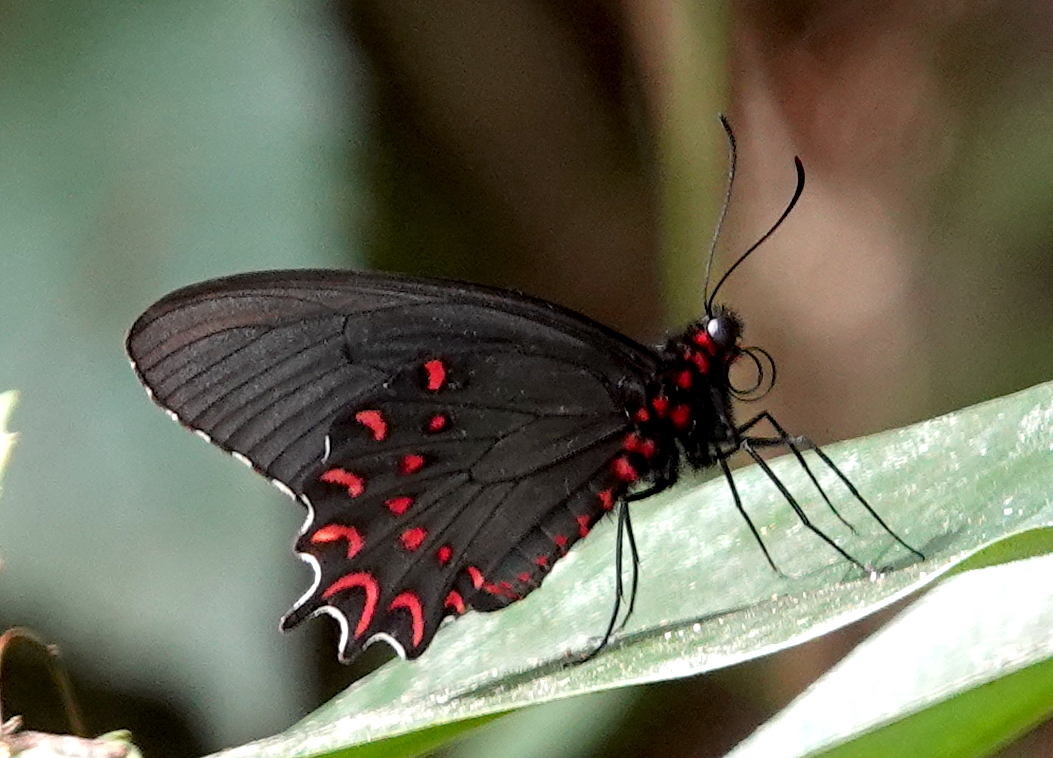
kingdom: Animalia
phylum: Arthropoda
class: Insecta
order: Lepidoptera
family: Papilionidae
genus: Parides
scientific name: Parides photinus
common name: Pink-spotted cattleheart
